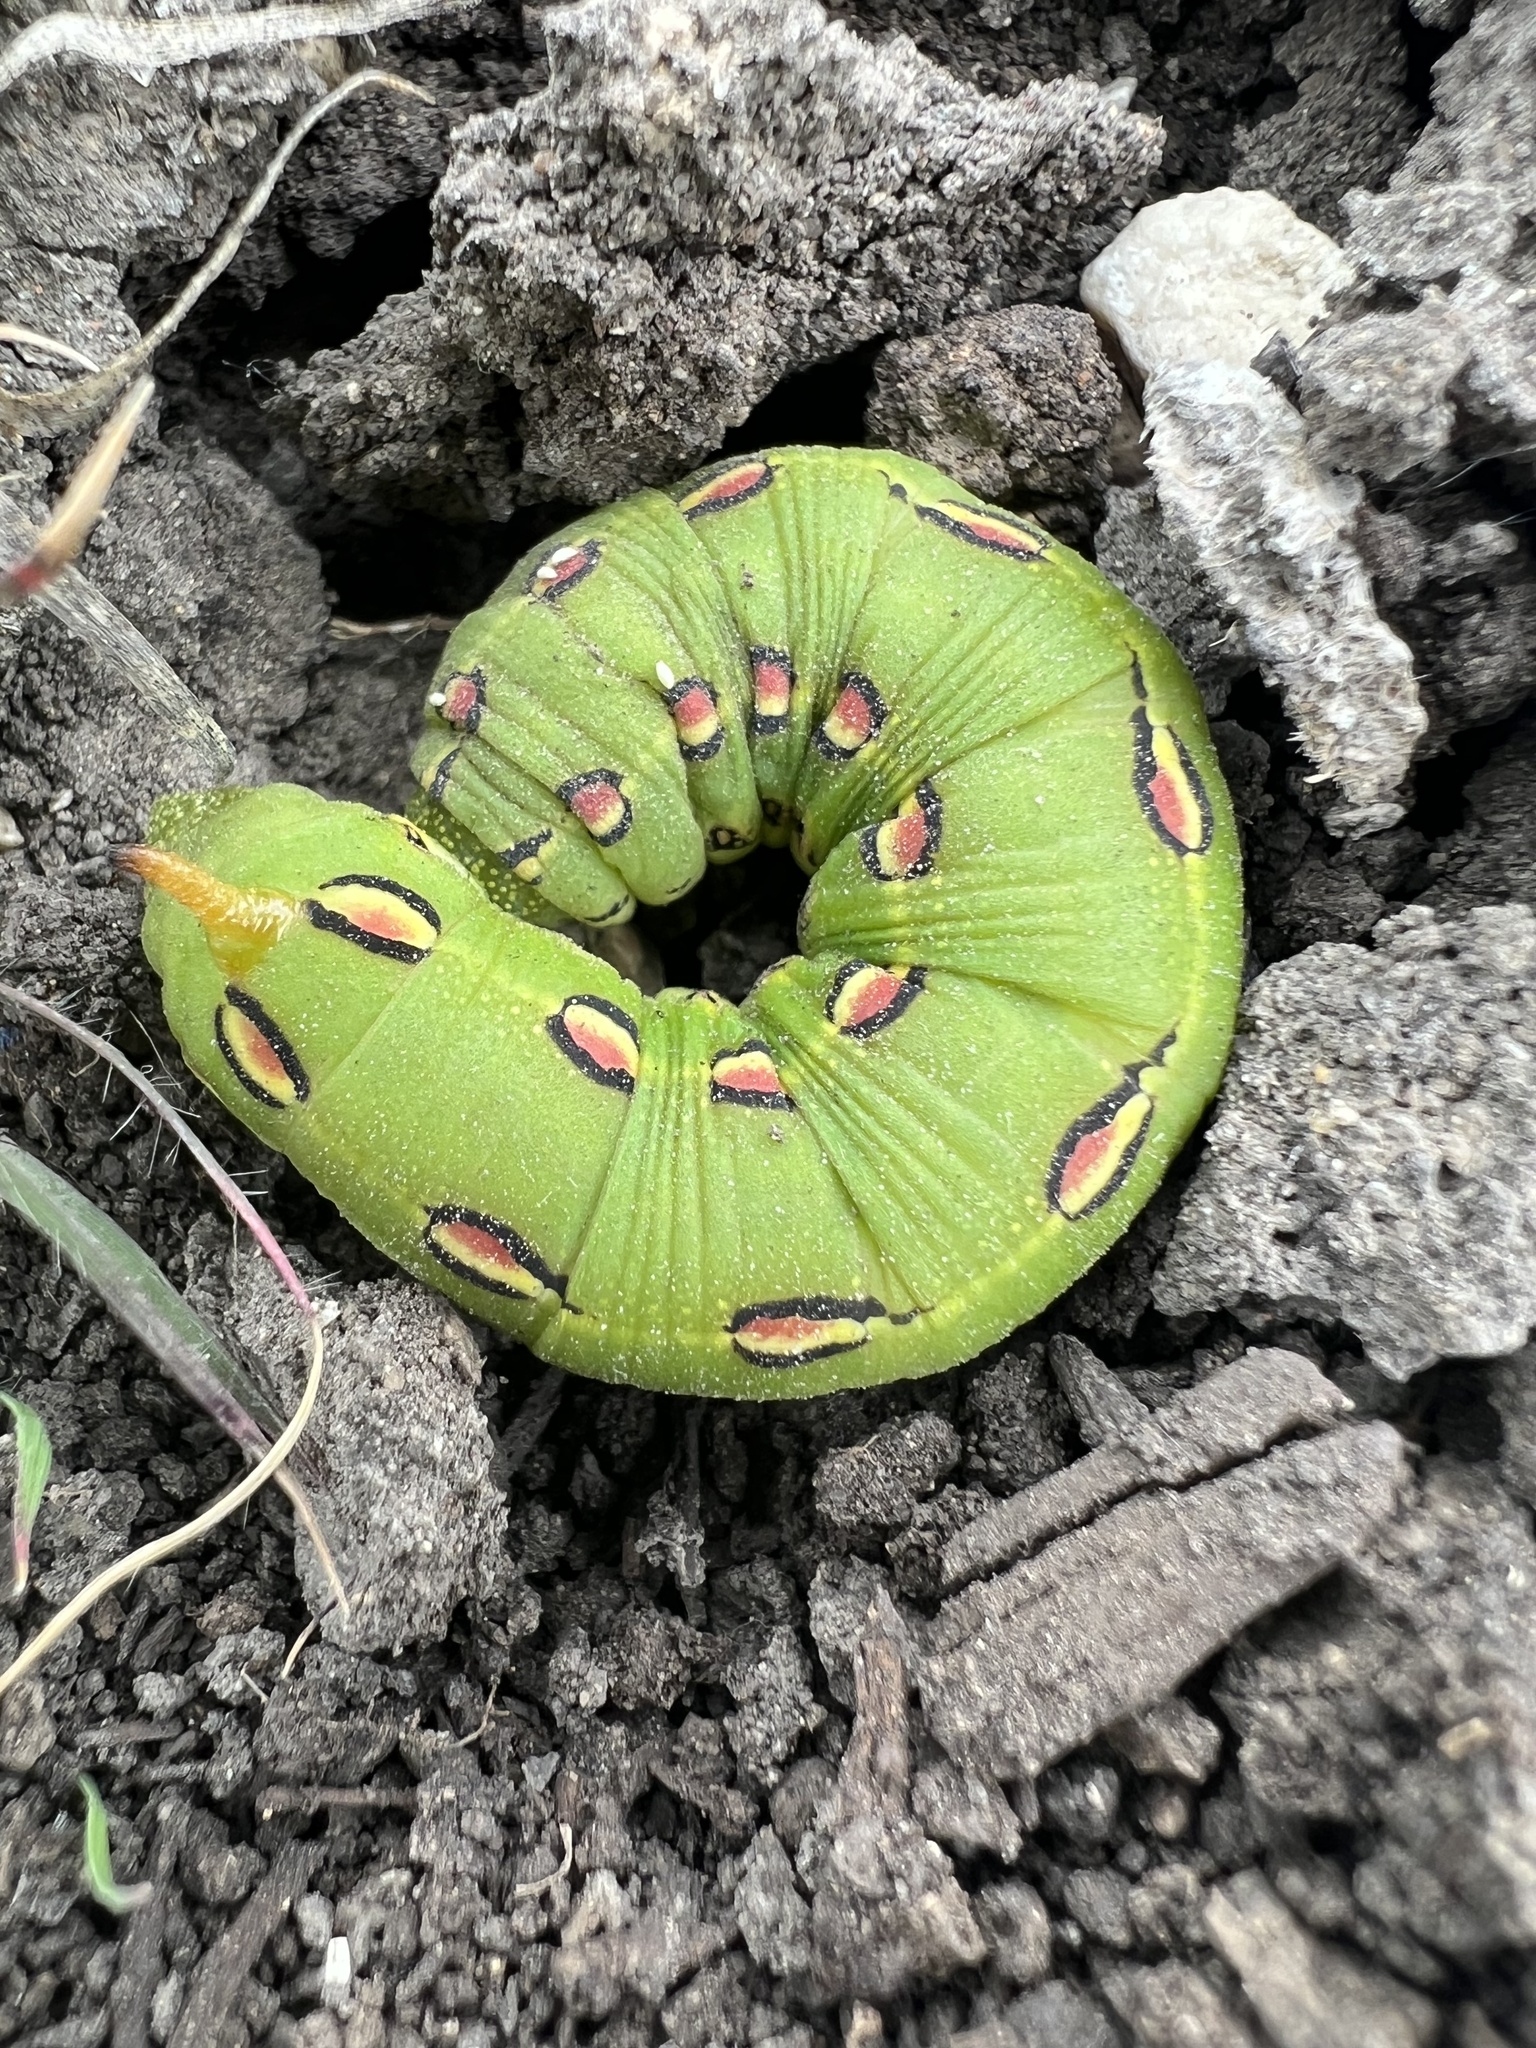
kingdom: Animalia
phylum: Arthropoda
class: Insecta
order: Lepidoptera
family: Sphingidae
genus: Hyles
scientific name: Hyles lineata
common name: White-lined sphinx
